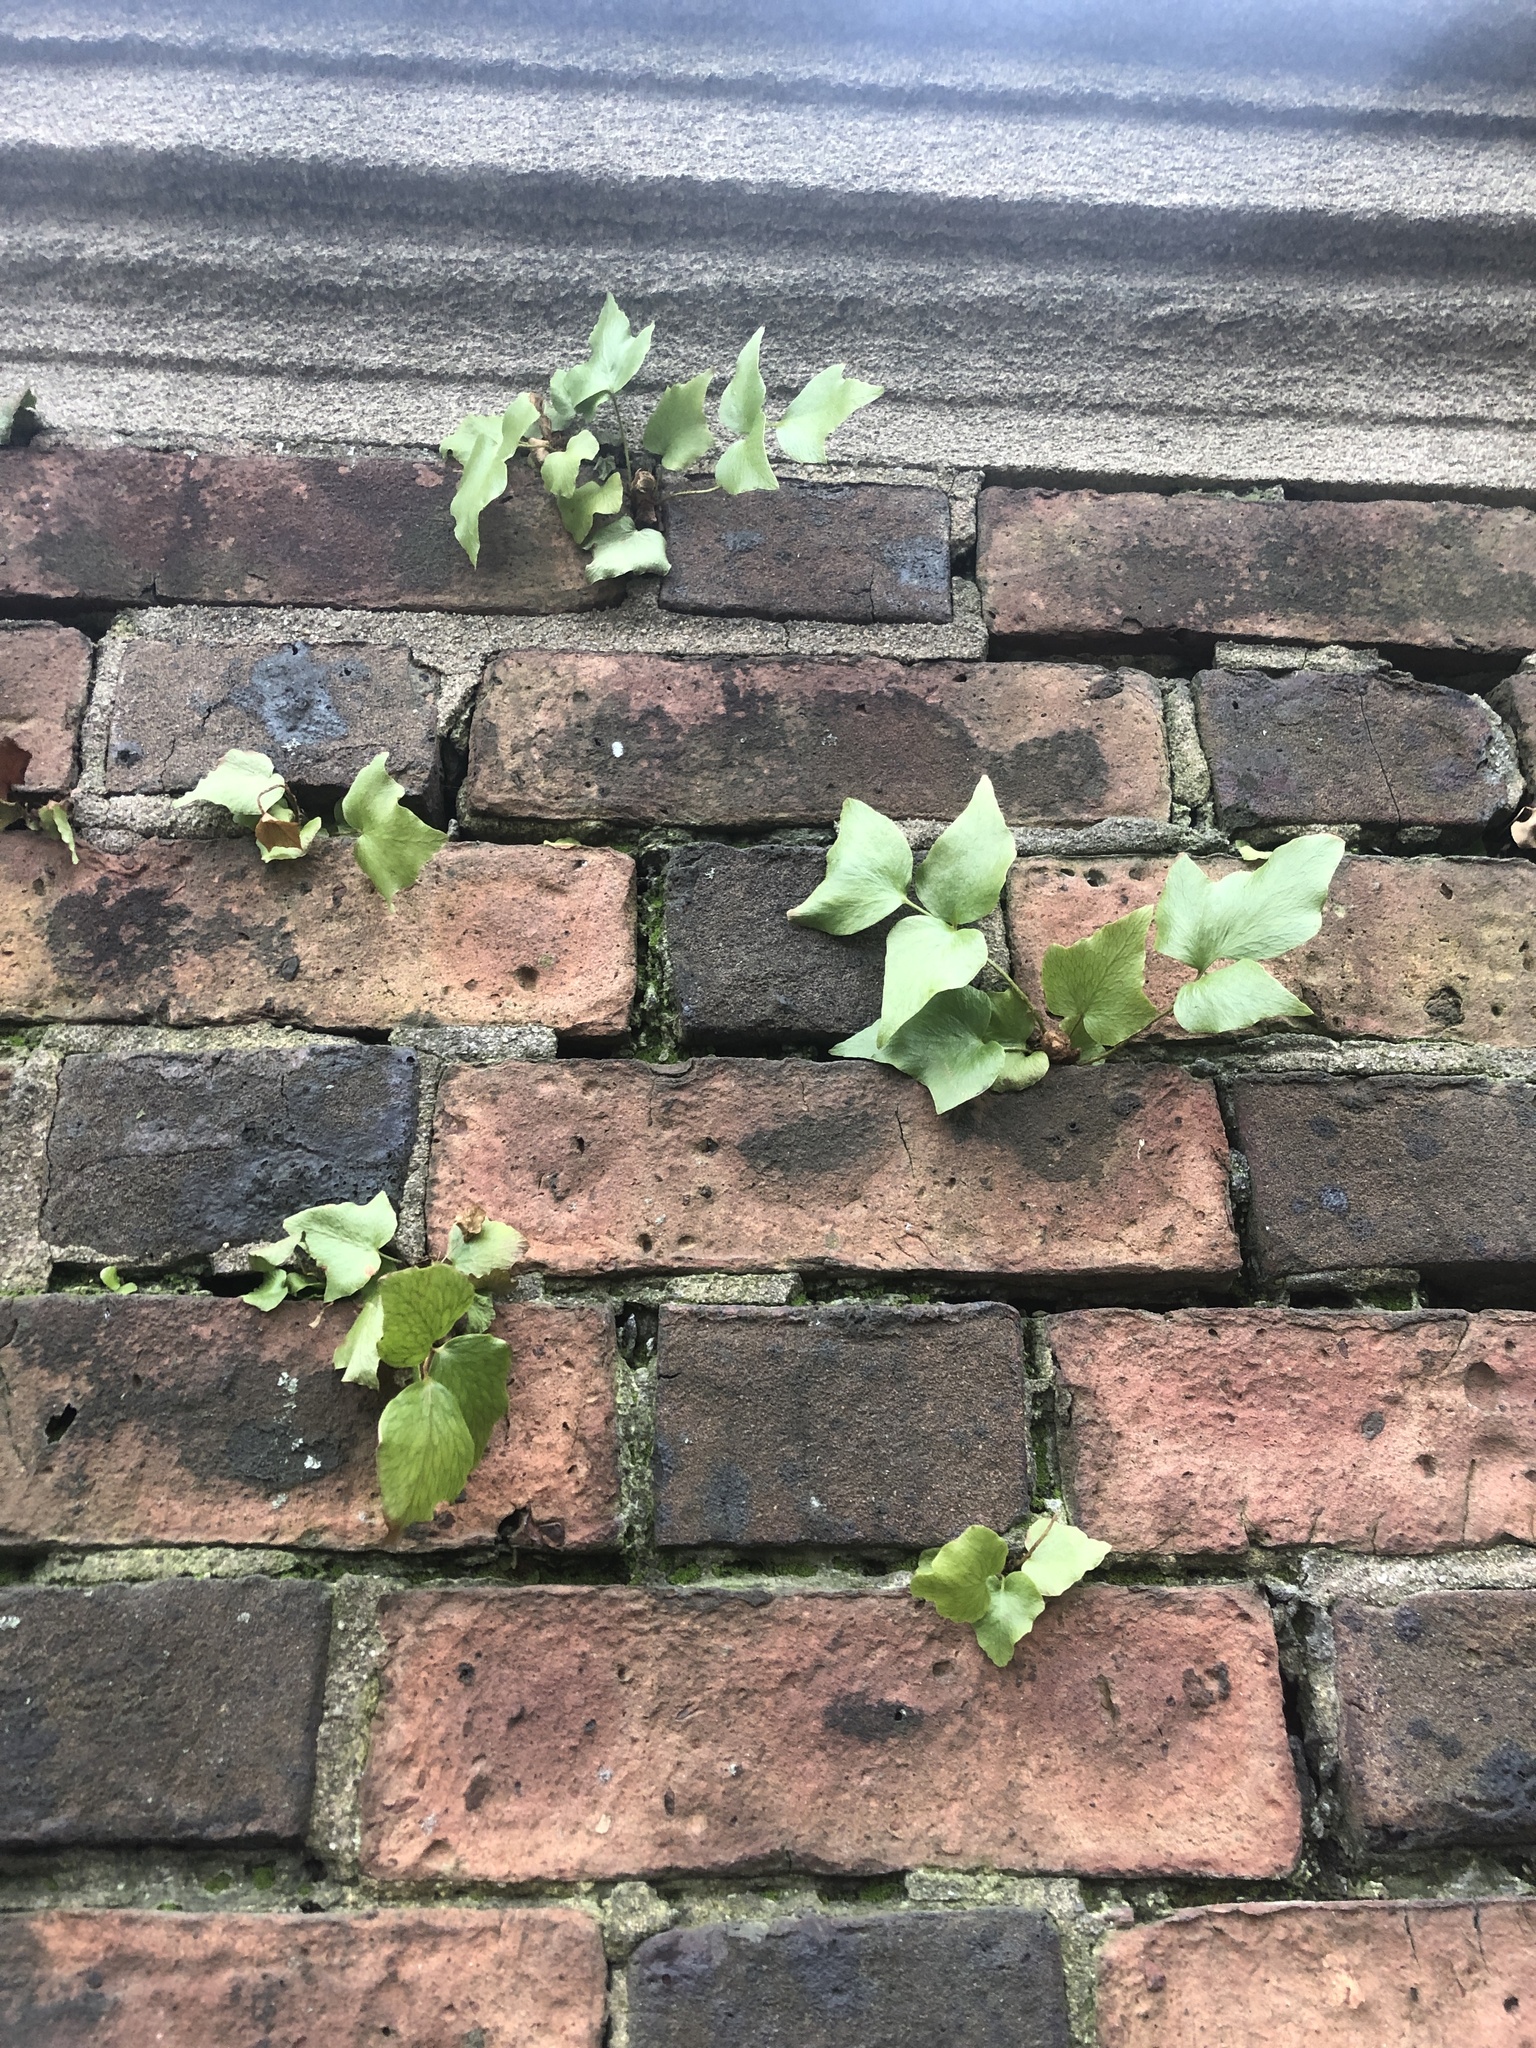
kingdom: Plantae
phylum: Tracheophyta
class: Polypodiopsida
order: Polypodiales
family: Dryopteridaceae
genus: Cyrtomium
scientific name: Cyrtomium falcatum
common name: House holly-fern
